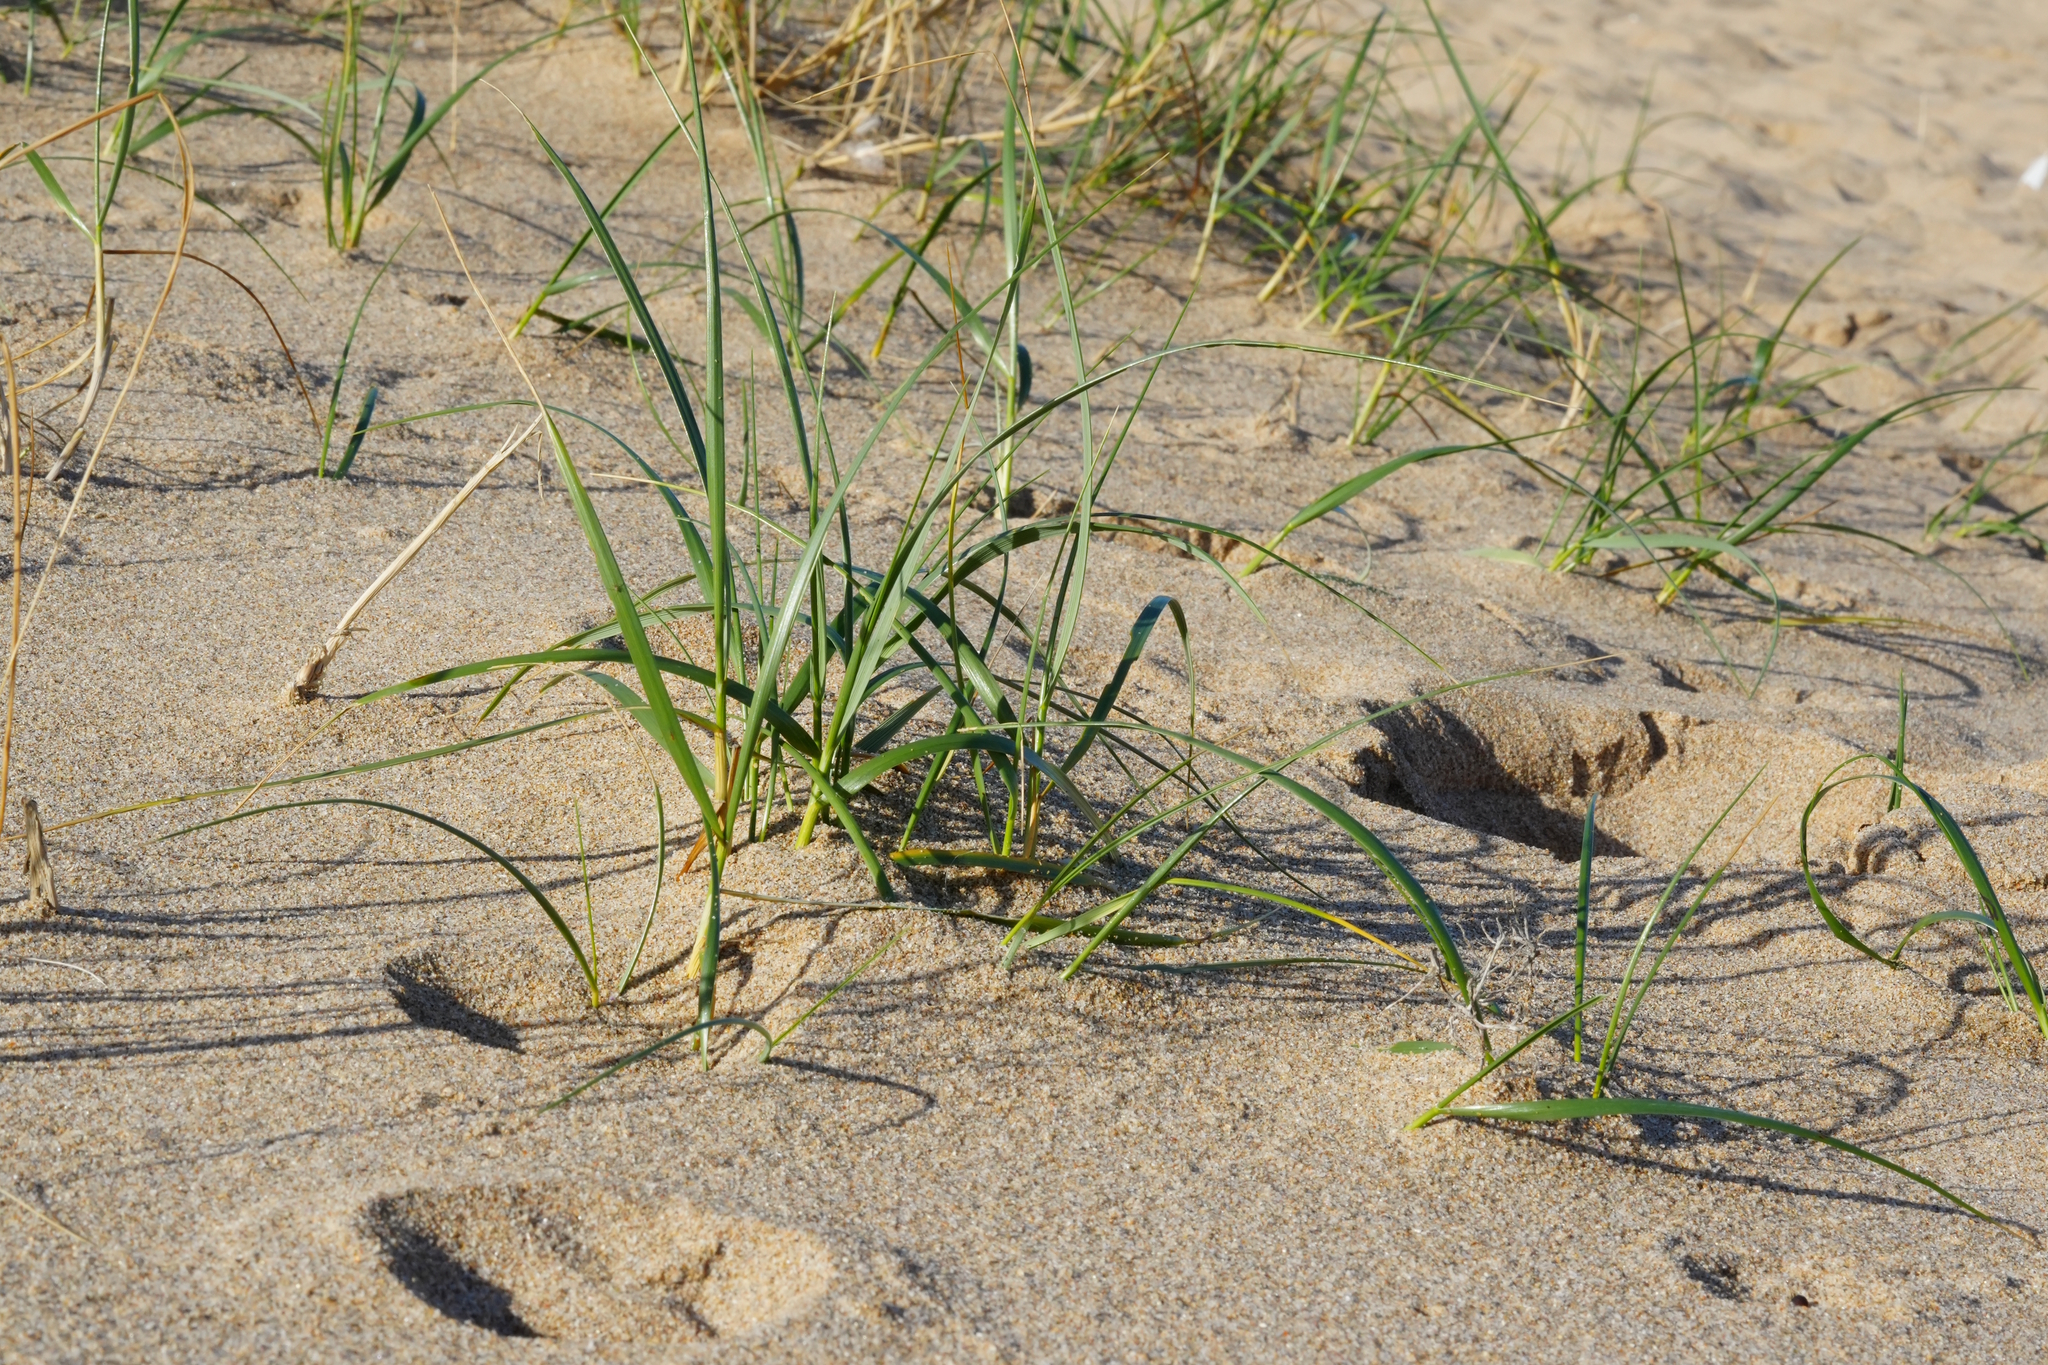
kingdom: Plantae
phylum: Tracheophyta
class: Liliopsida
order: Poales
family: Poaceae
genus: Spinifex
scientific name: Spinifex sericeus
